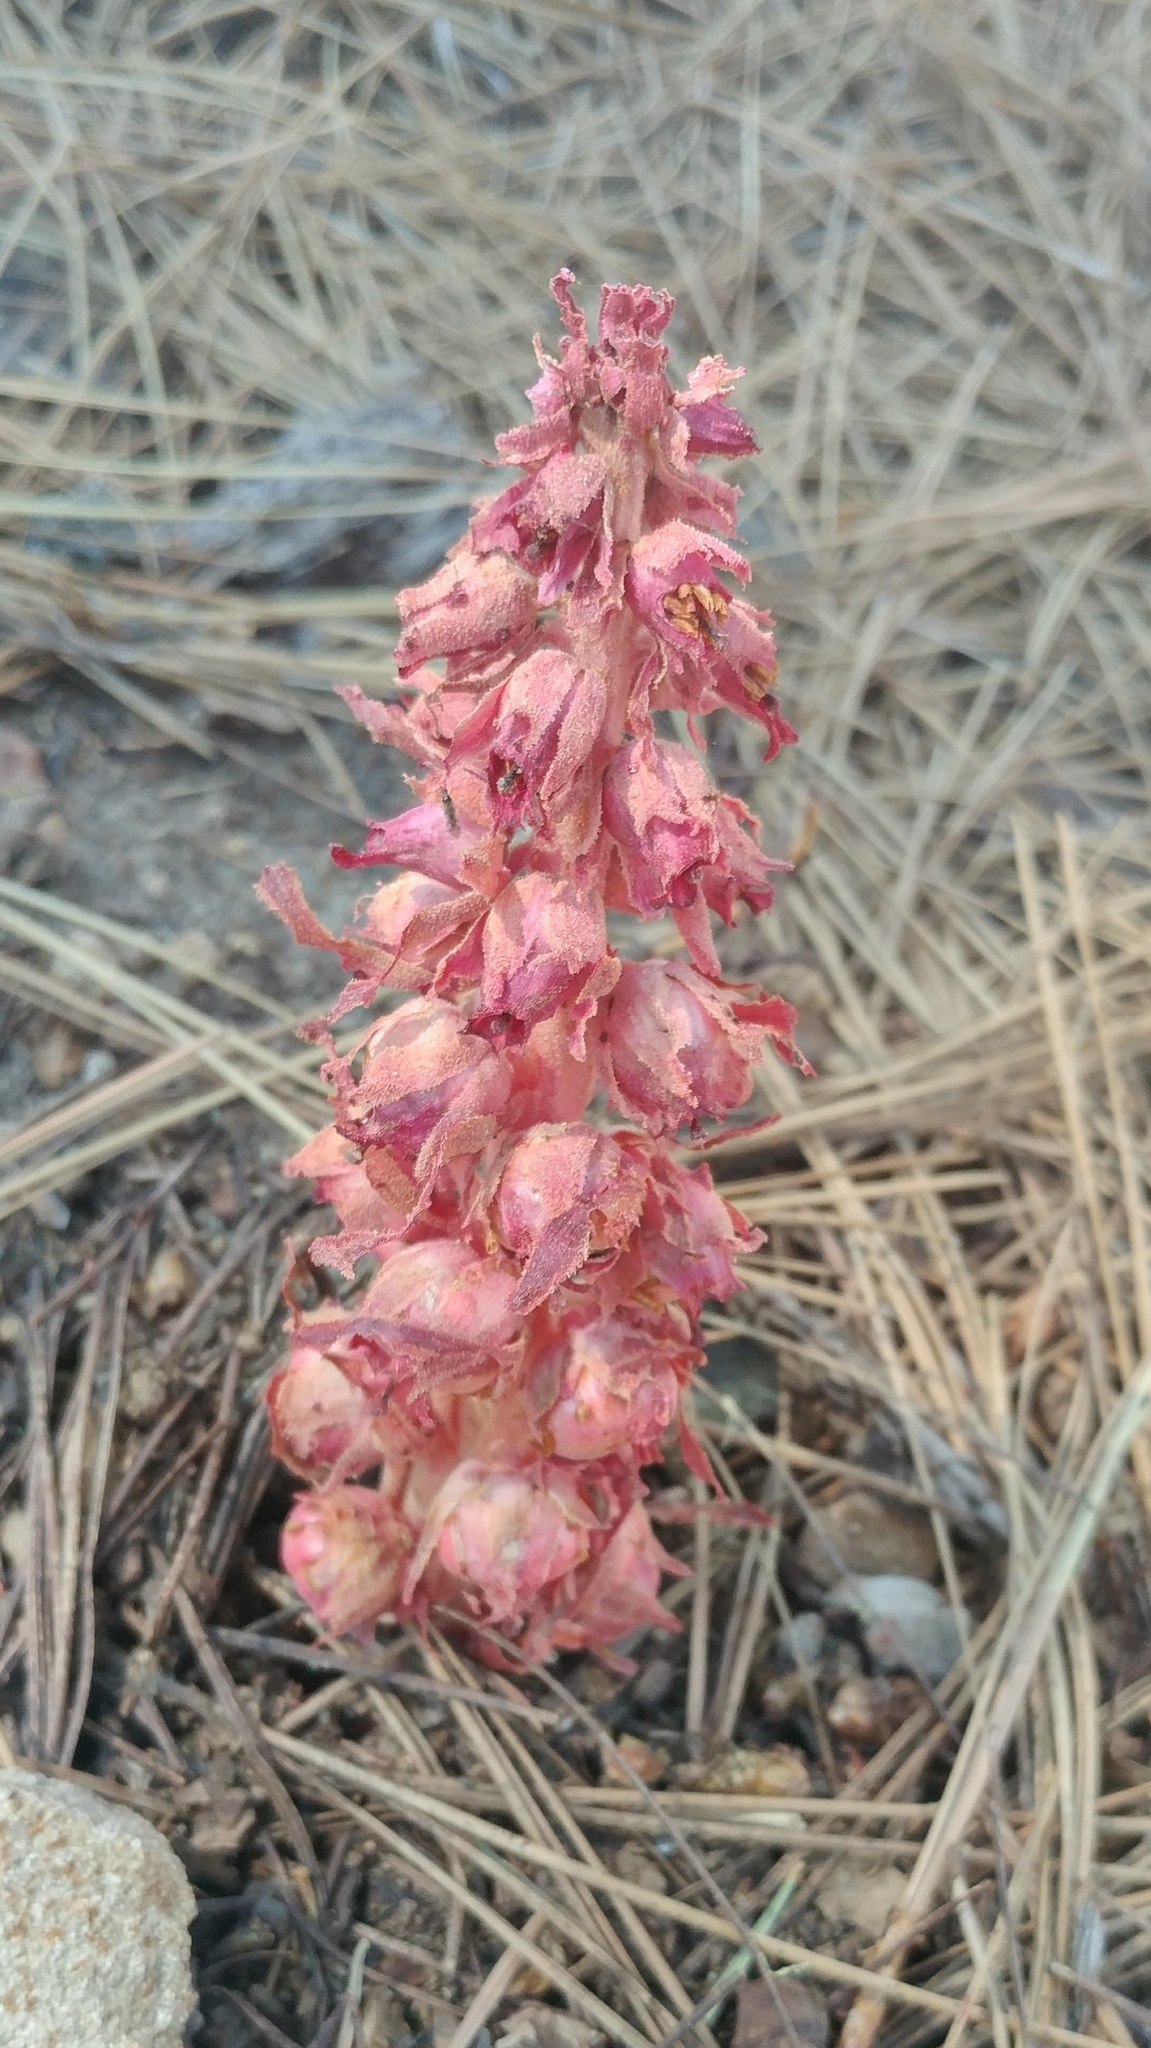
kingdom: Plantae
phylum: Tracheophyta
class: Magnoliopsida
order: Ericales
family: Ericaceae
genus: Sarcodes
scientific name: Sarcodes sanguinea
